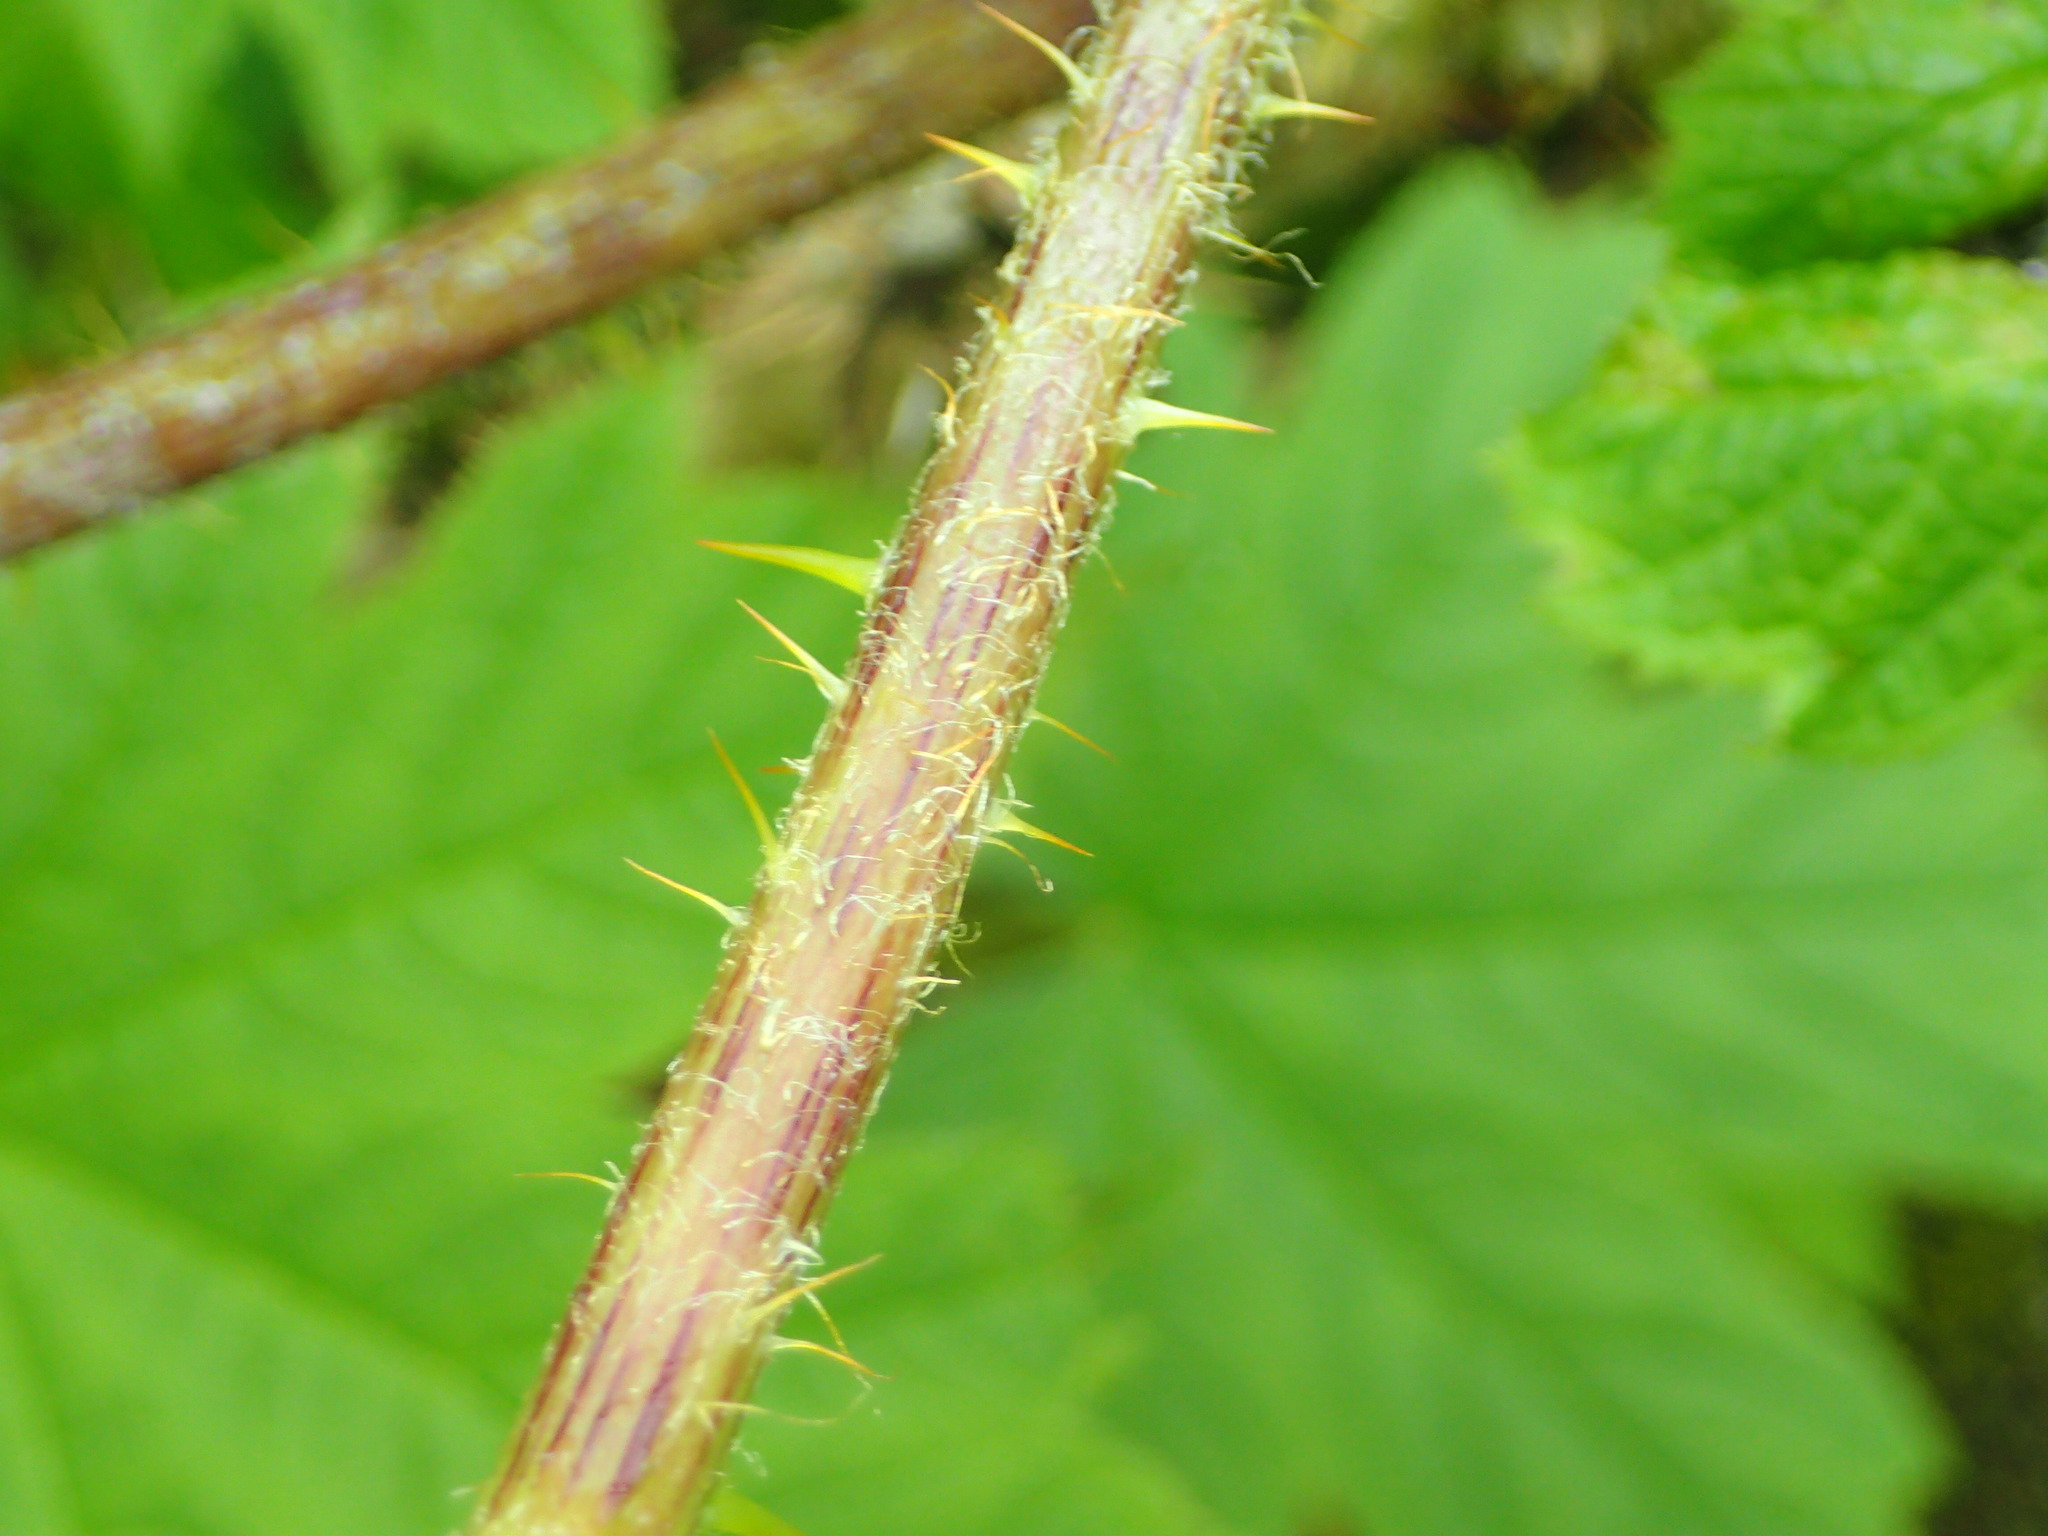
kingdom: Plantae
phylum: Tracheophyta
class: Magnoliopsida
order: Apiales
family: Araliaceae
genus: Oplopanax
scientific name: Oplopanax horridus
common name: Devil's walking-stick
